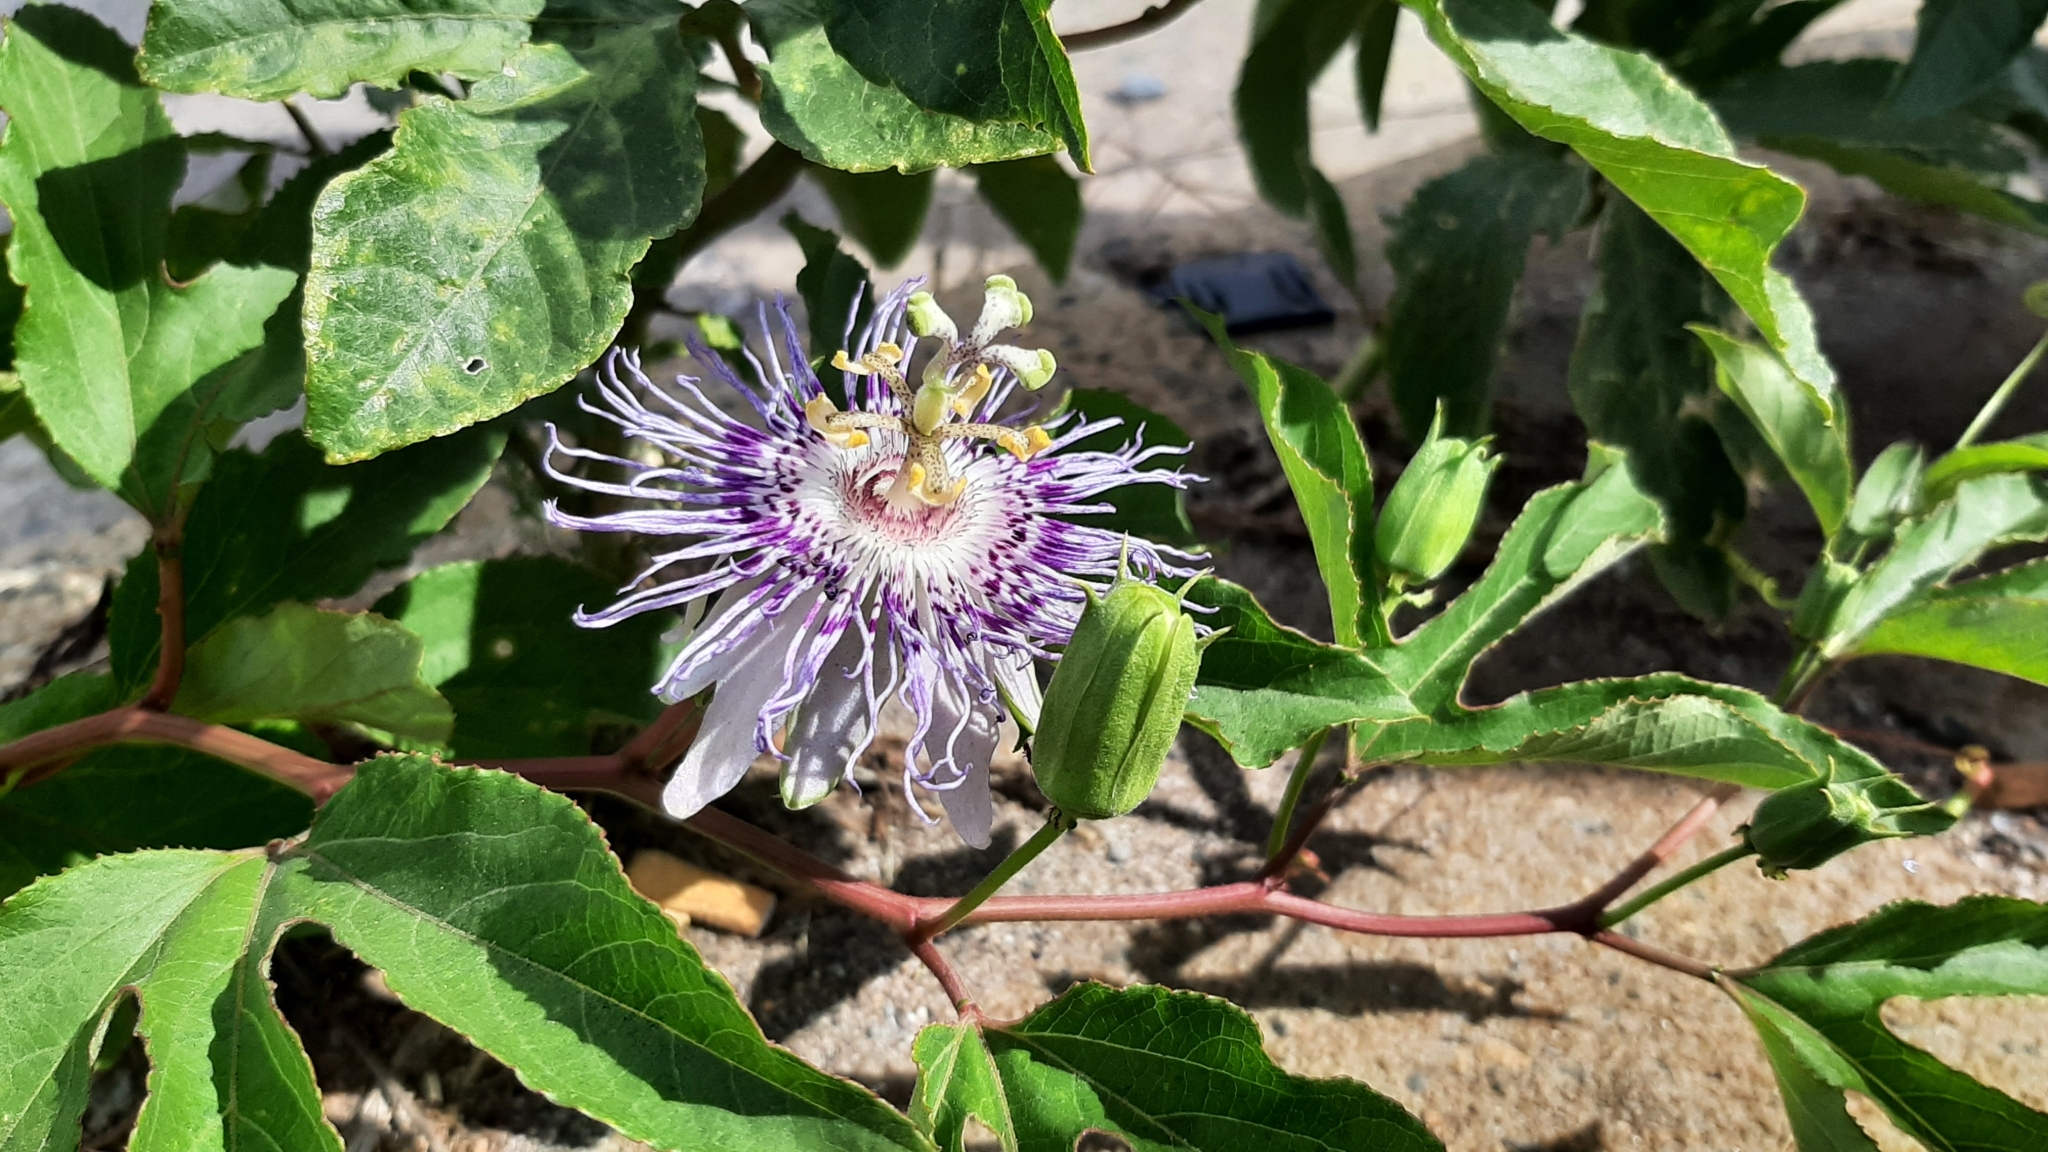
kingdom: Plantae
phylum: Tracheophyta
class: Magnoliopsida
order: Malpighiales
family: Passifloraceae
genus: Passiflora
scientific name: Passiflora incarnata
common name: Apricot-vine
